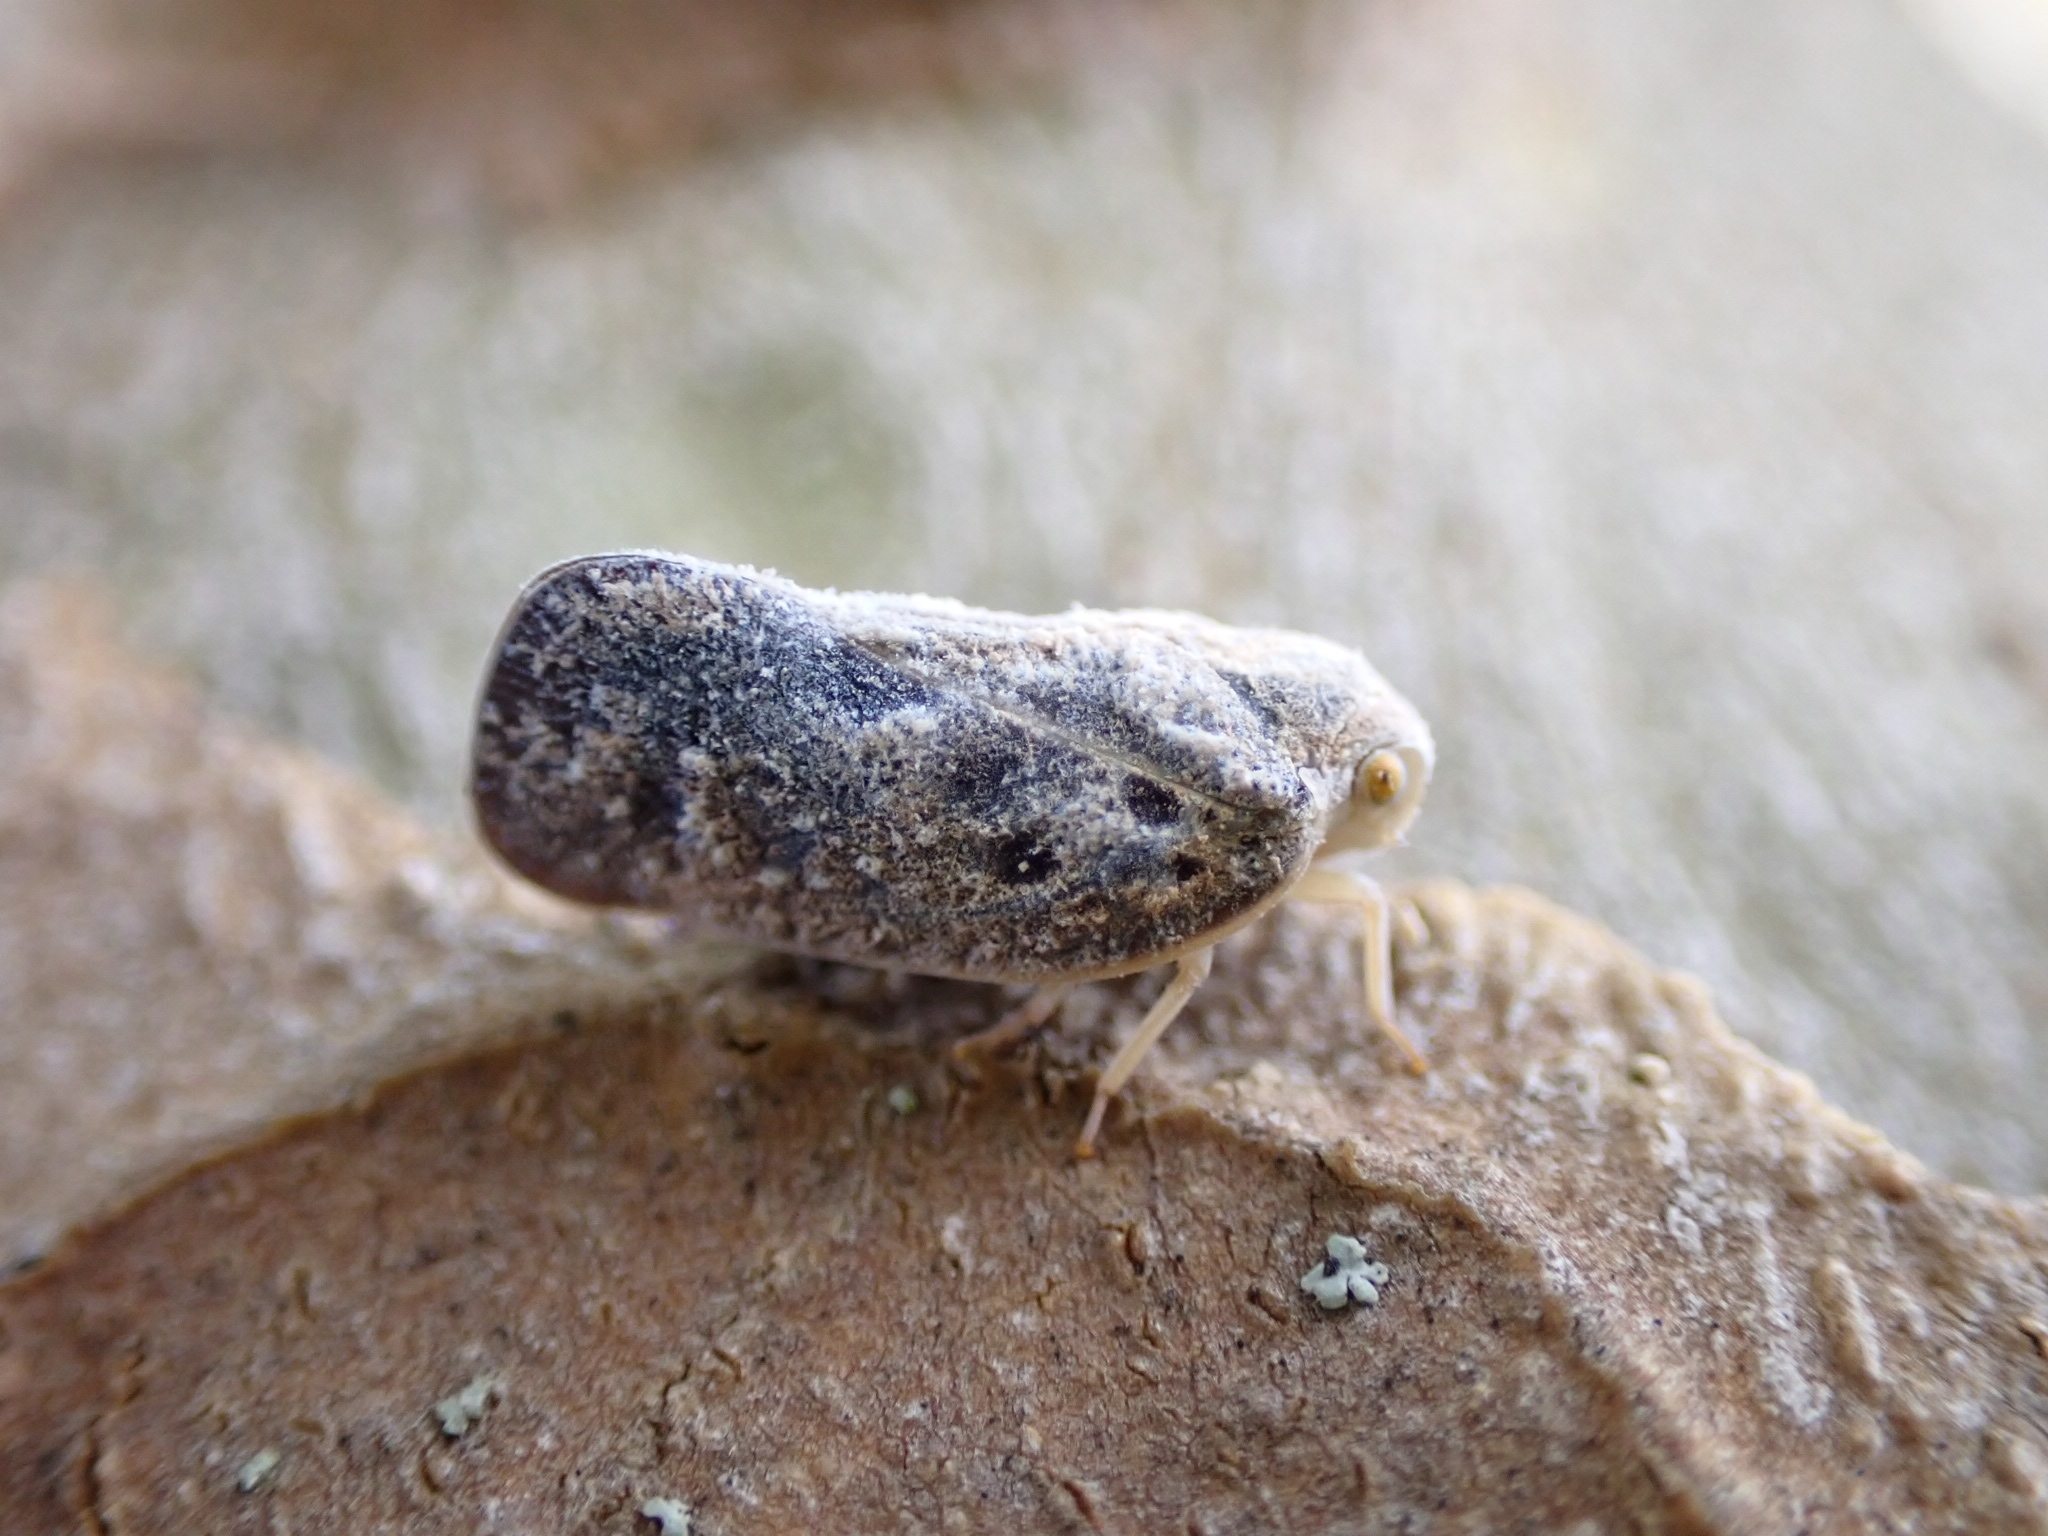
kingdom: Animalia
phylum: Arthropoda
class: Insecta
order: Hemiptera
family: Flatidae
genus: Metcalfa
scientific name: Metcalfa pruinosa
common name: Citrus flatid planthopper
